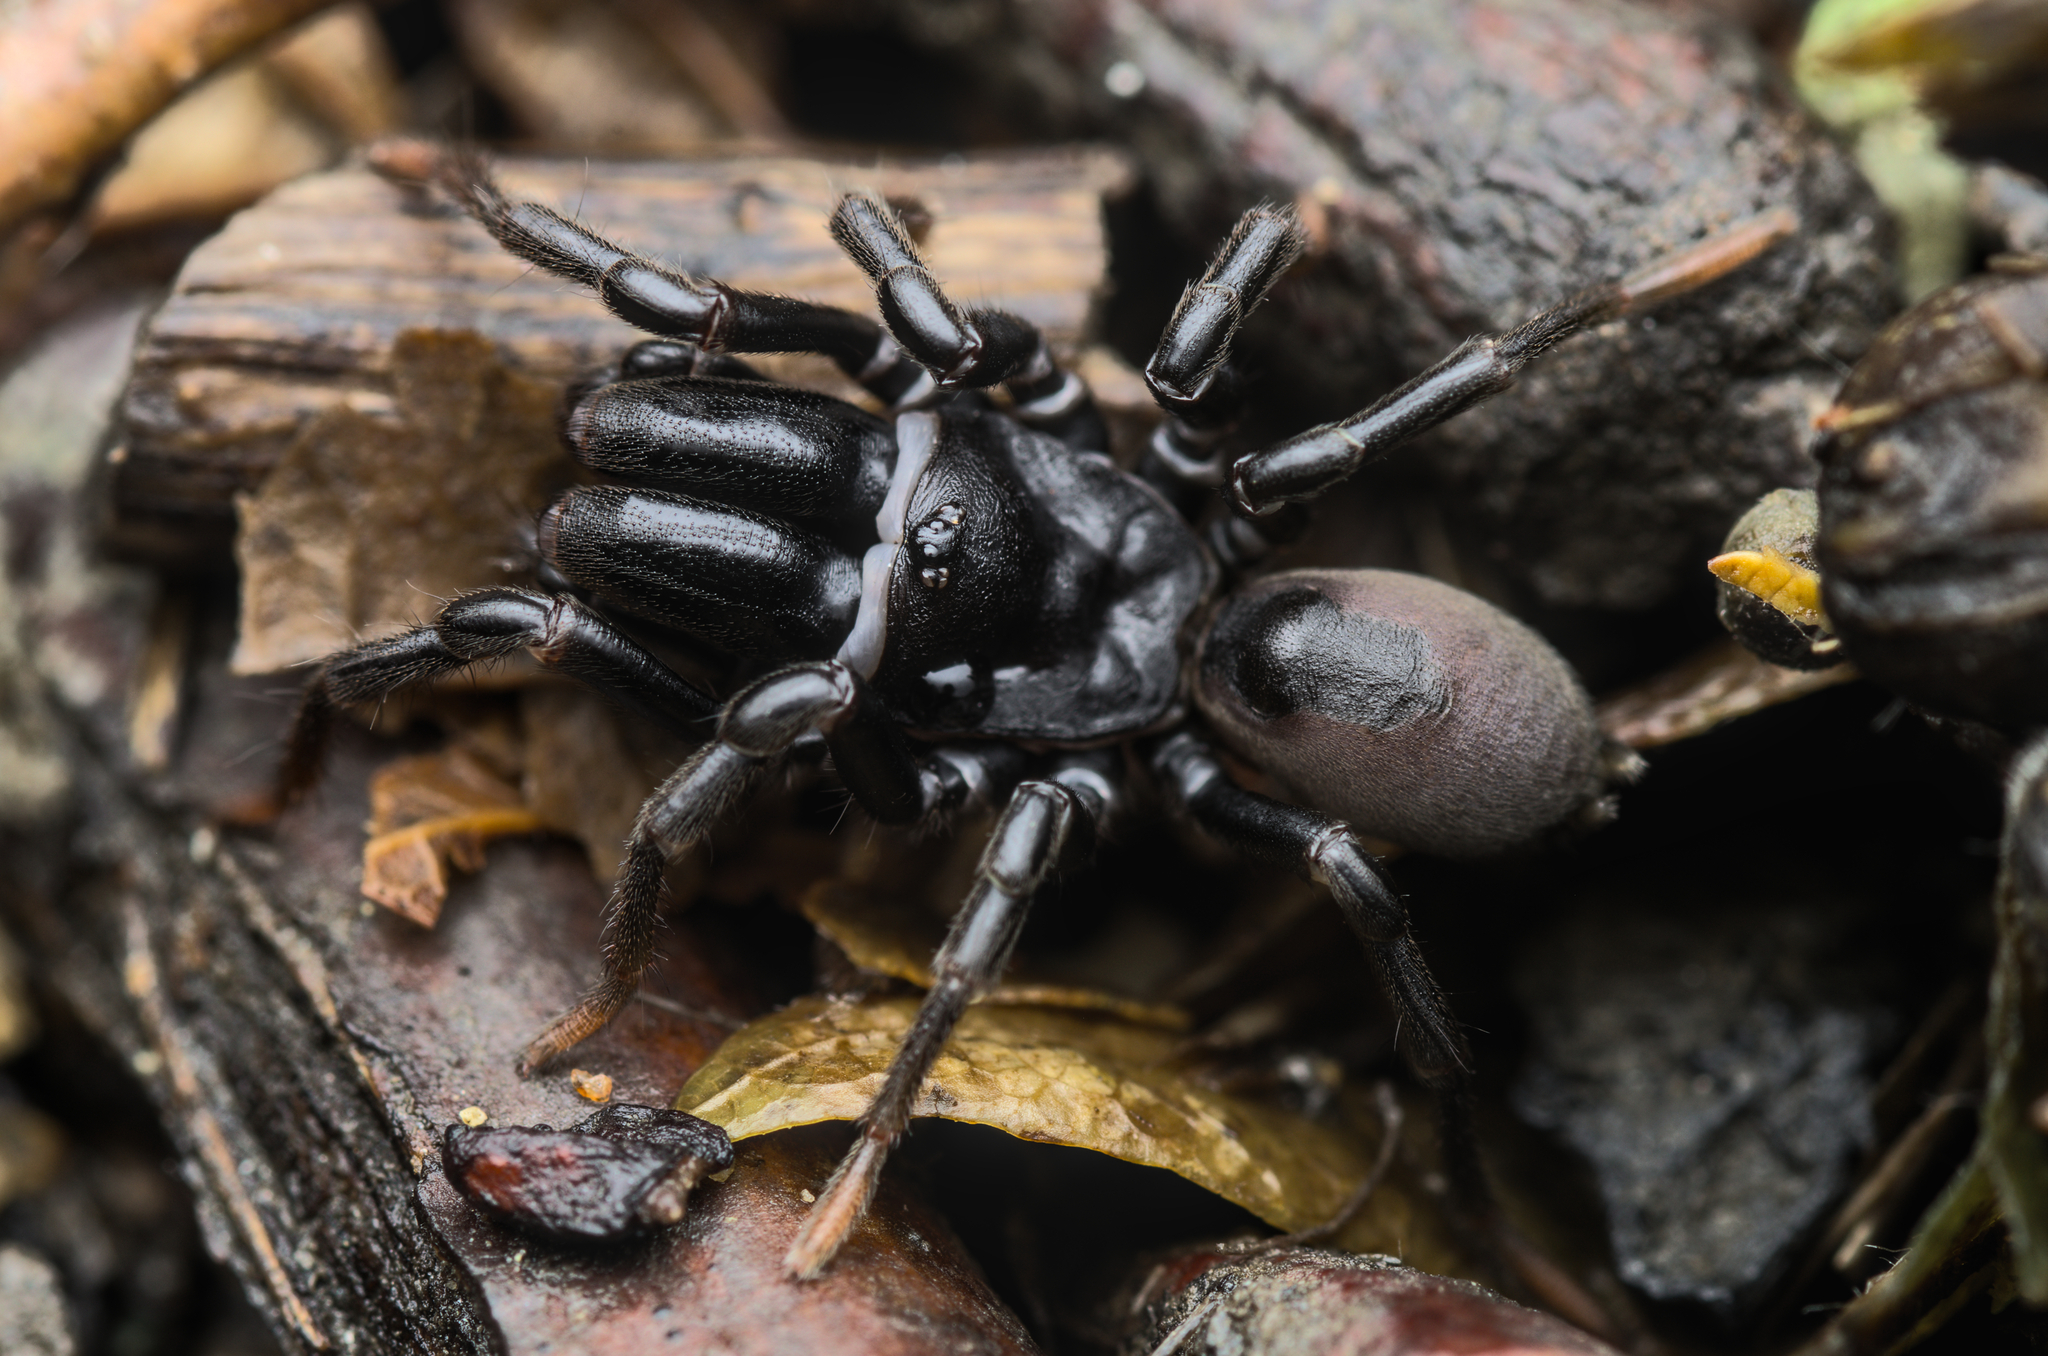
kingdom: Animalia
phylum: Arthropoda
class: Arachnida
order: Araneae
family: Atypidae
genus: Atypus
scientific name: Atypus affinis
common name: Purse web spider
